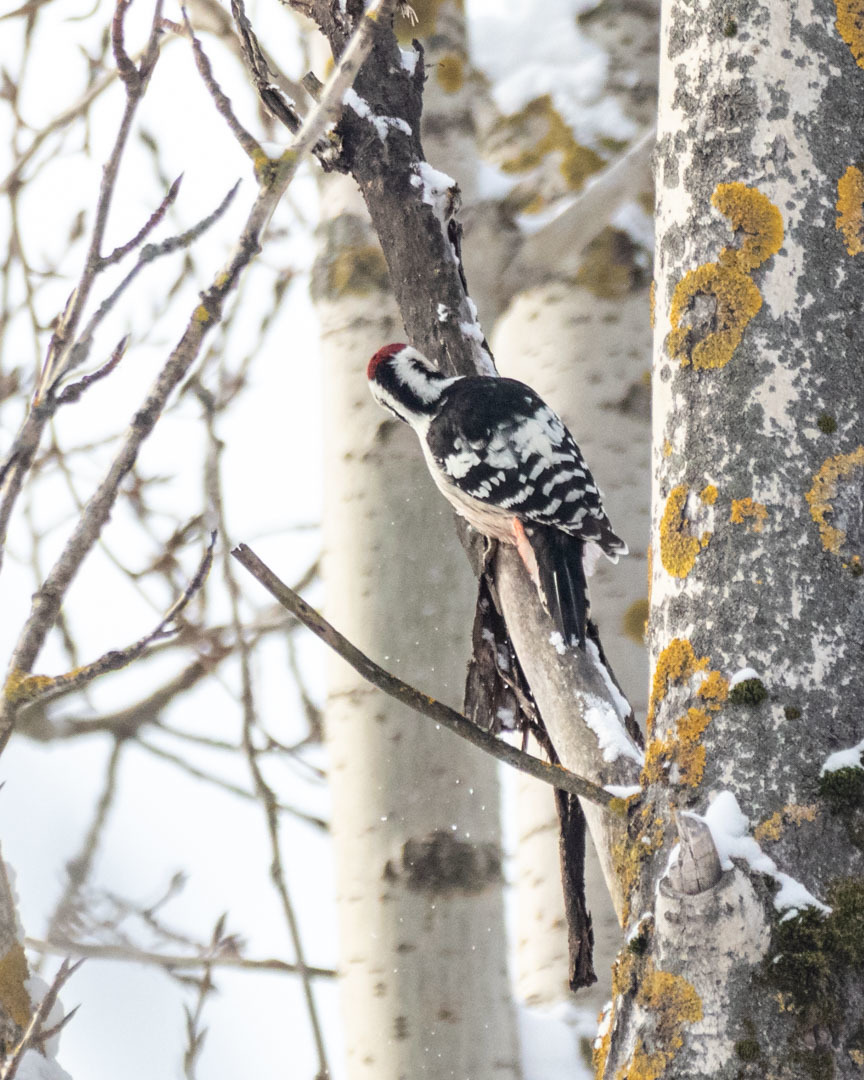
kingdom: Animalia
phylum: Chordata
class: Aves
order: Piciformes
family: Picidae
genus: Dendrocopos
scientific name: Dendrocopos leucotos
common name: White-backed woodpecker
